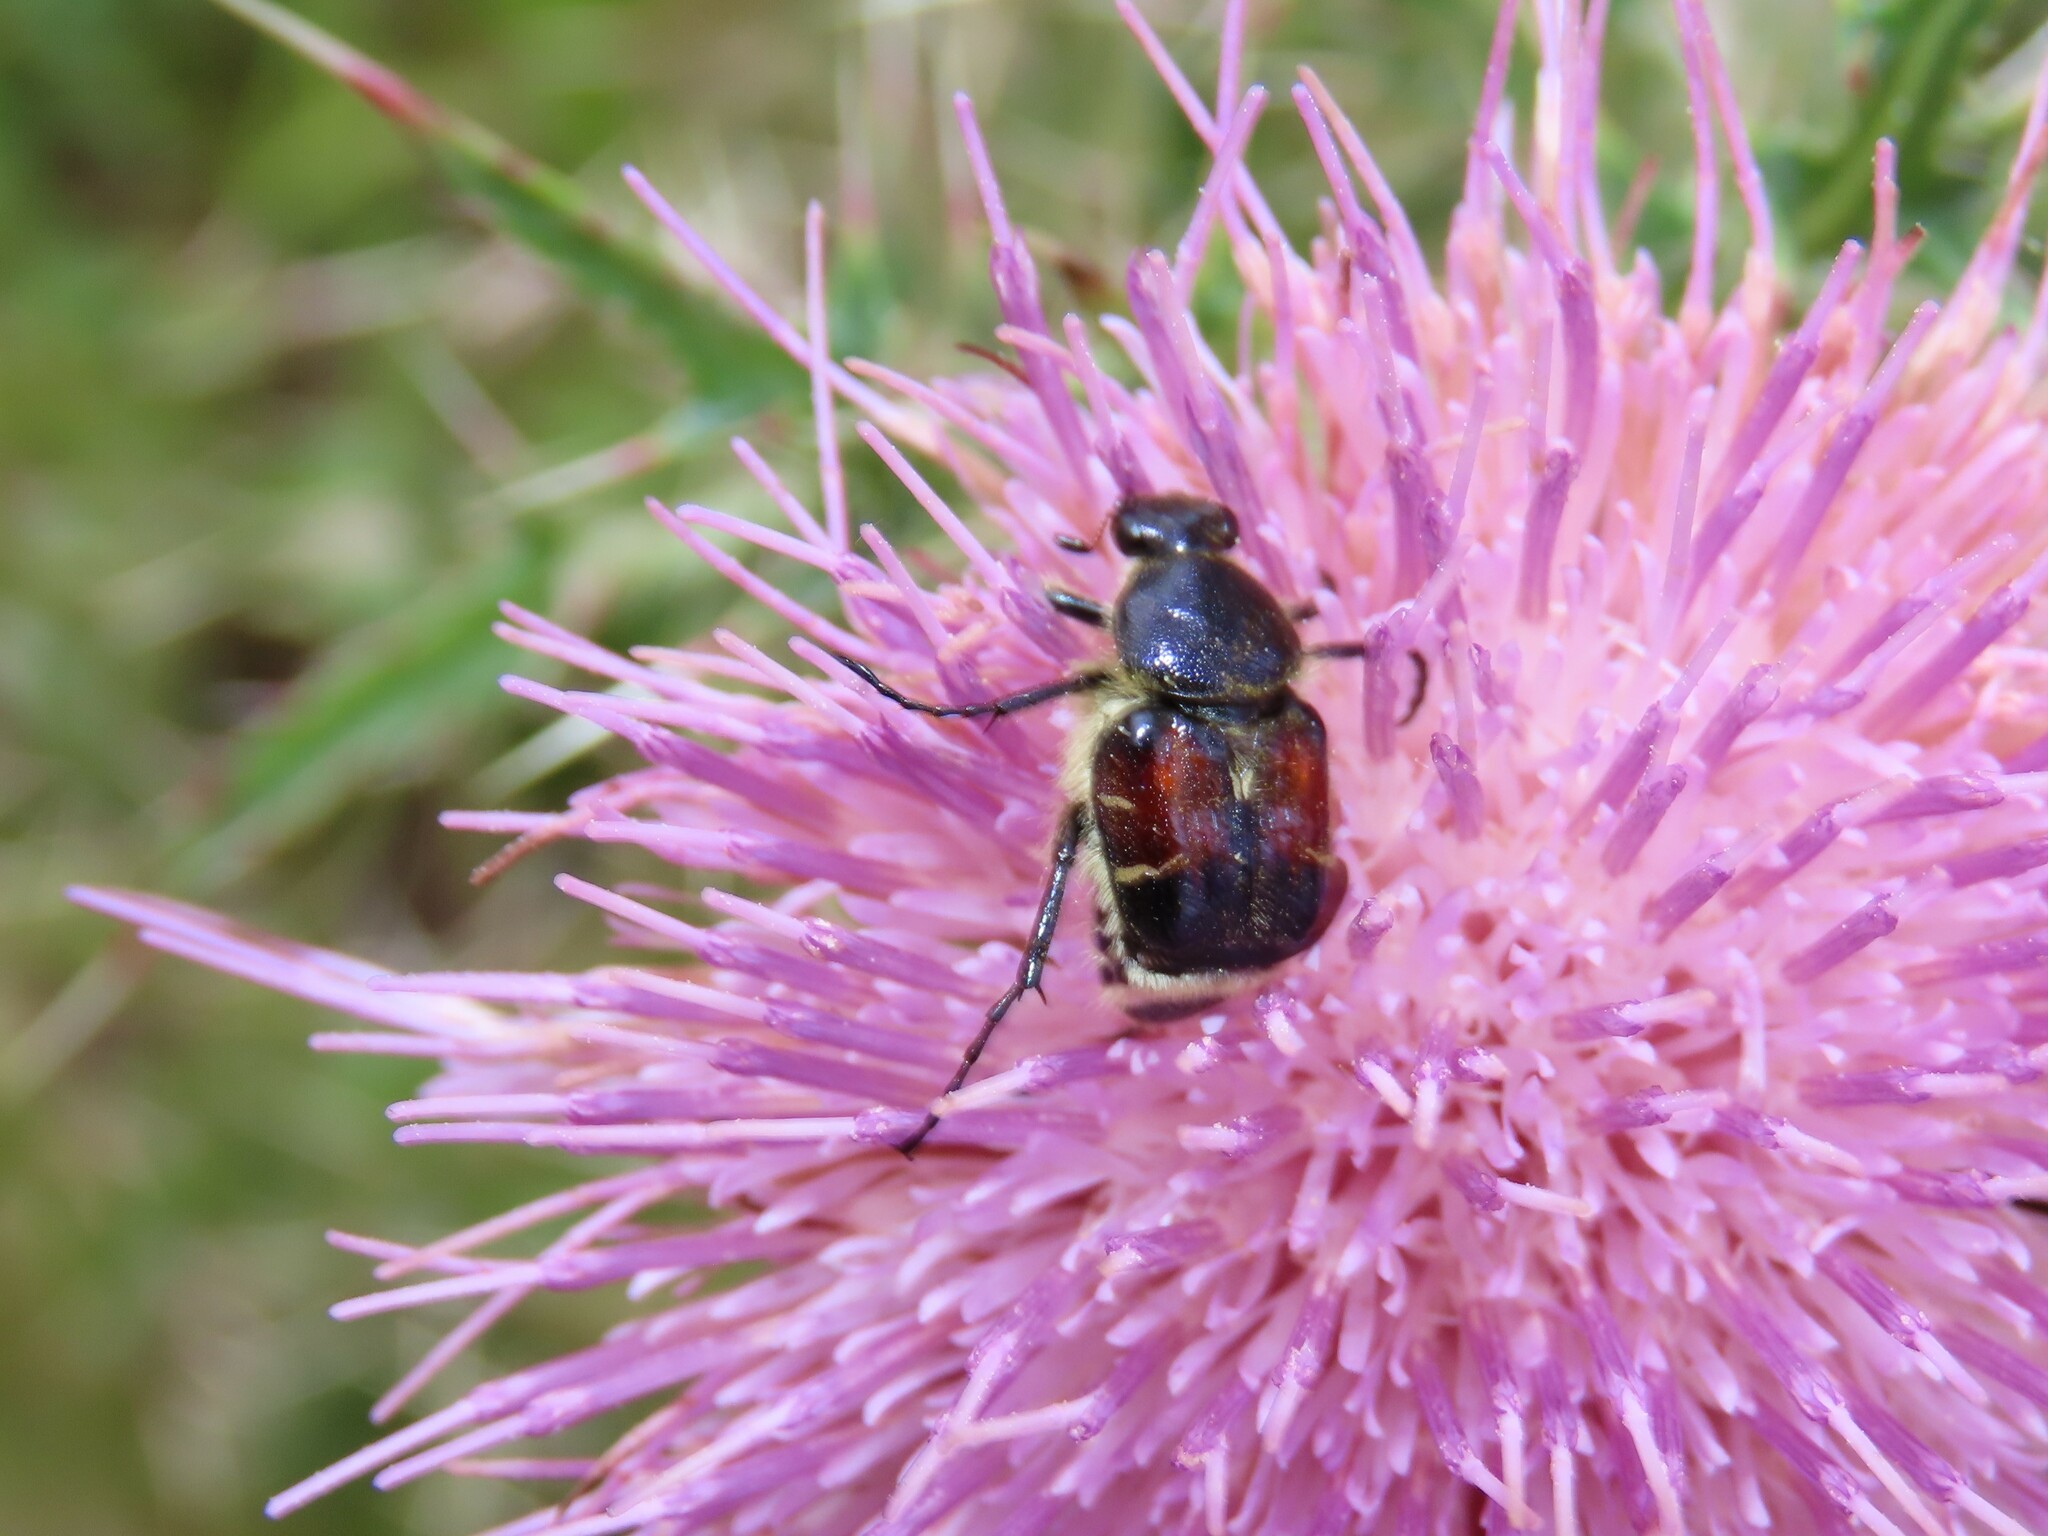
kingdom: Animalia
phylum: Arthropoda
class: Insecta
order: Coleoptera
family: Scarabaeidae
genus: Trichiotinus
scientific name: Trichiotinus piger
